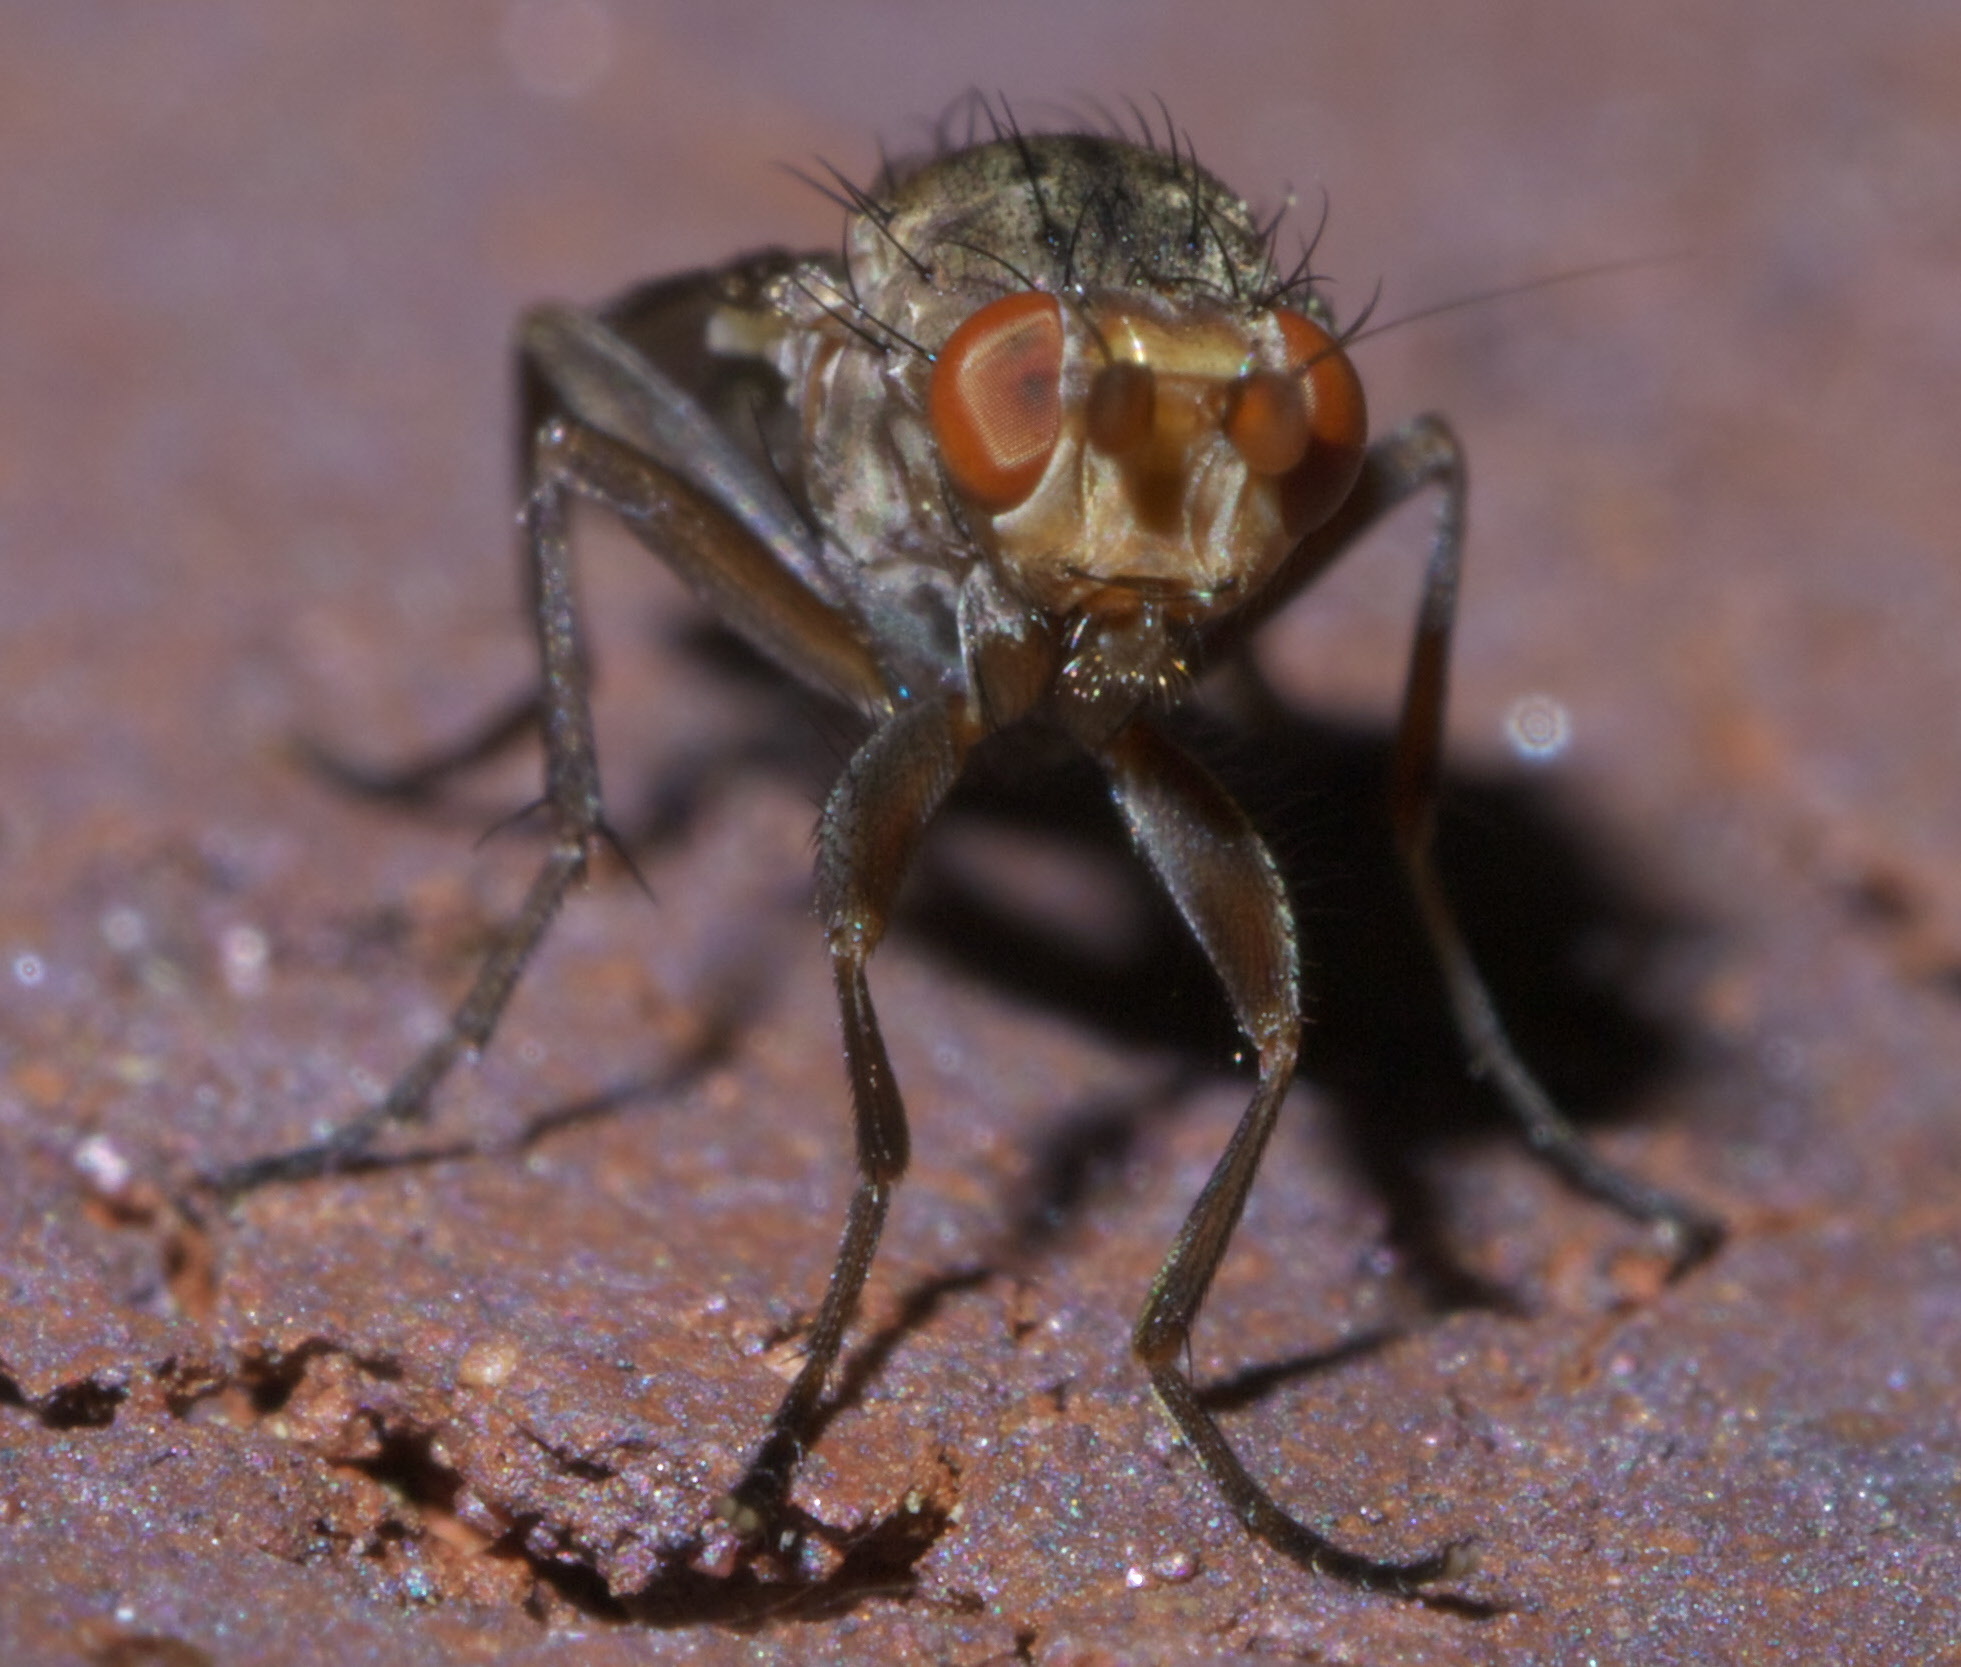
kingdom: Animalia
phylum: Arthropoda
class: Insecta
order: Diptera
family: Heleomyzidae
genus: Amoebaleria
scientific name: Amoebaleria defessa
